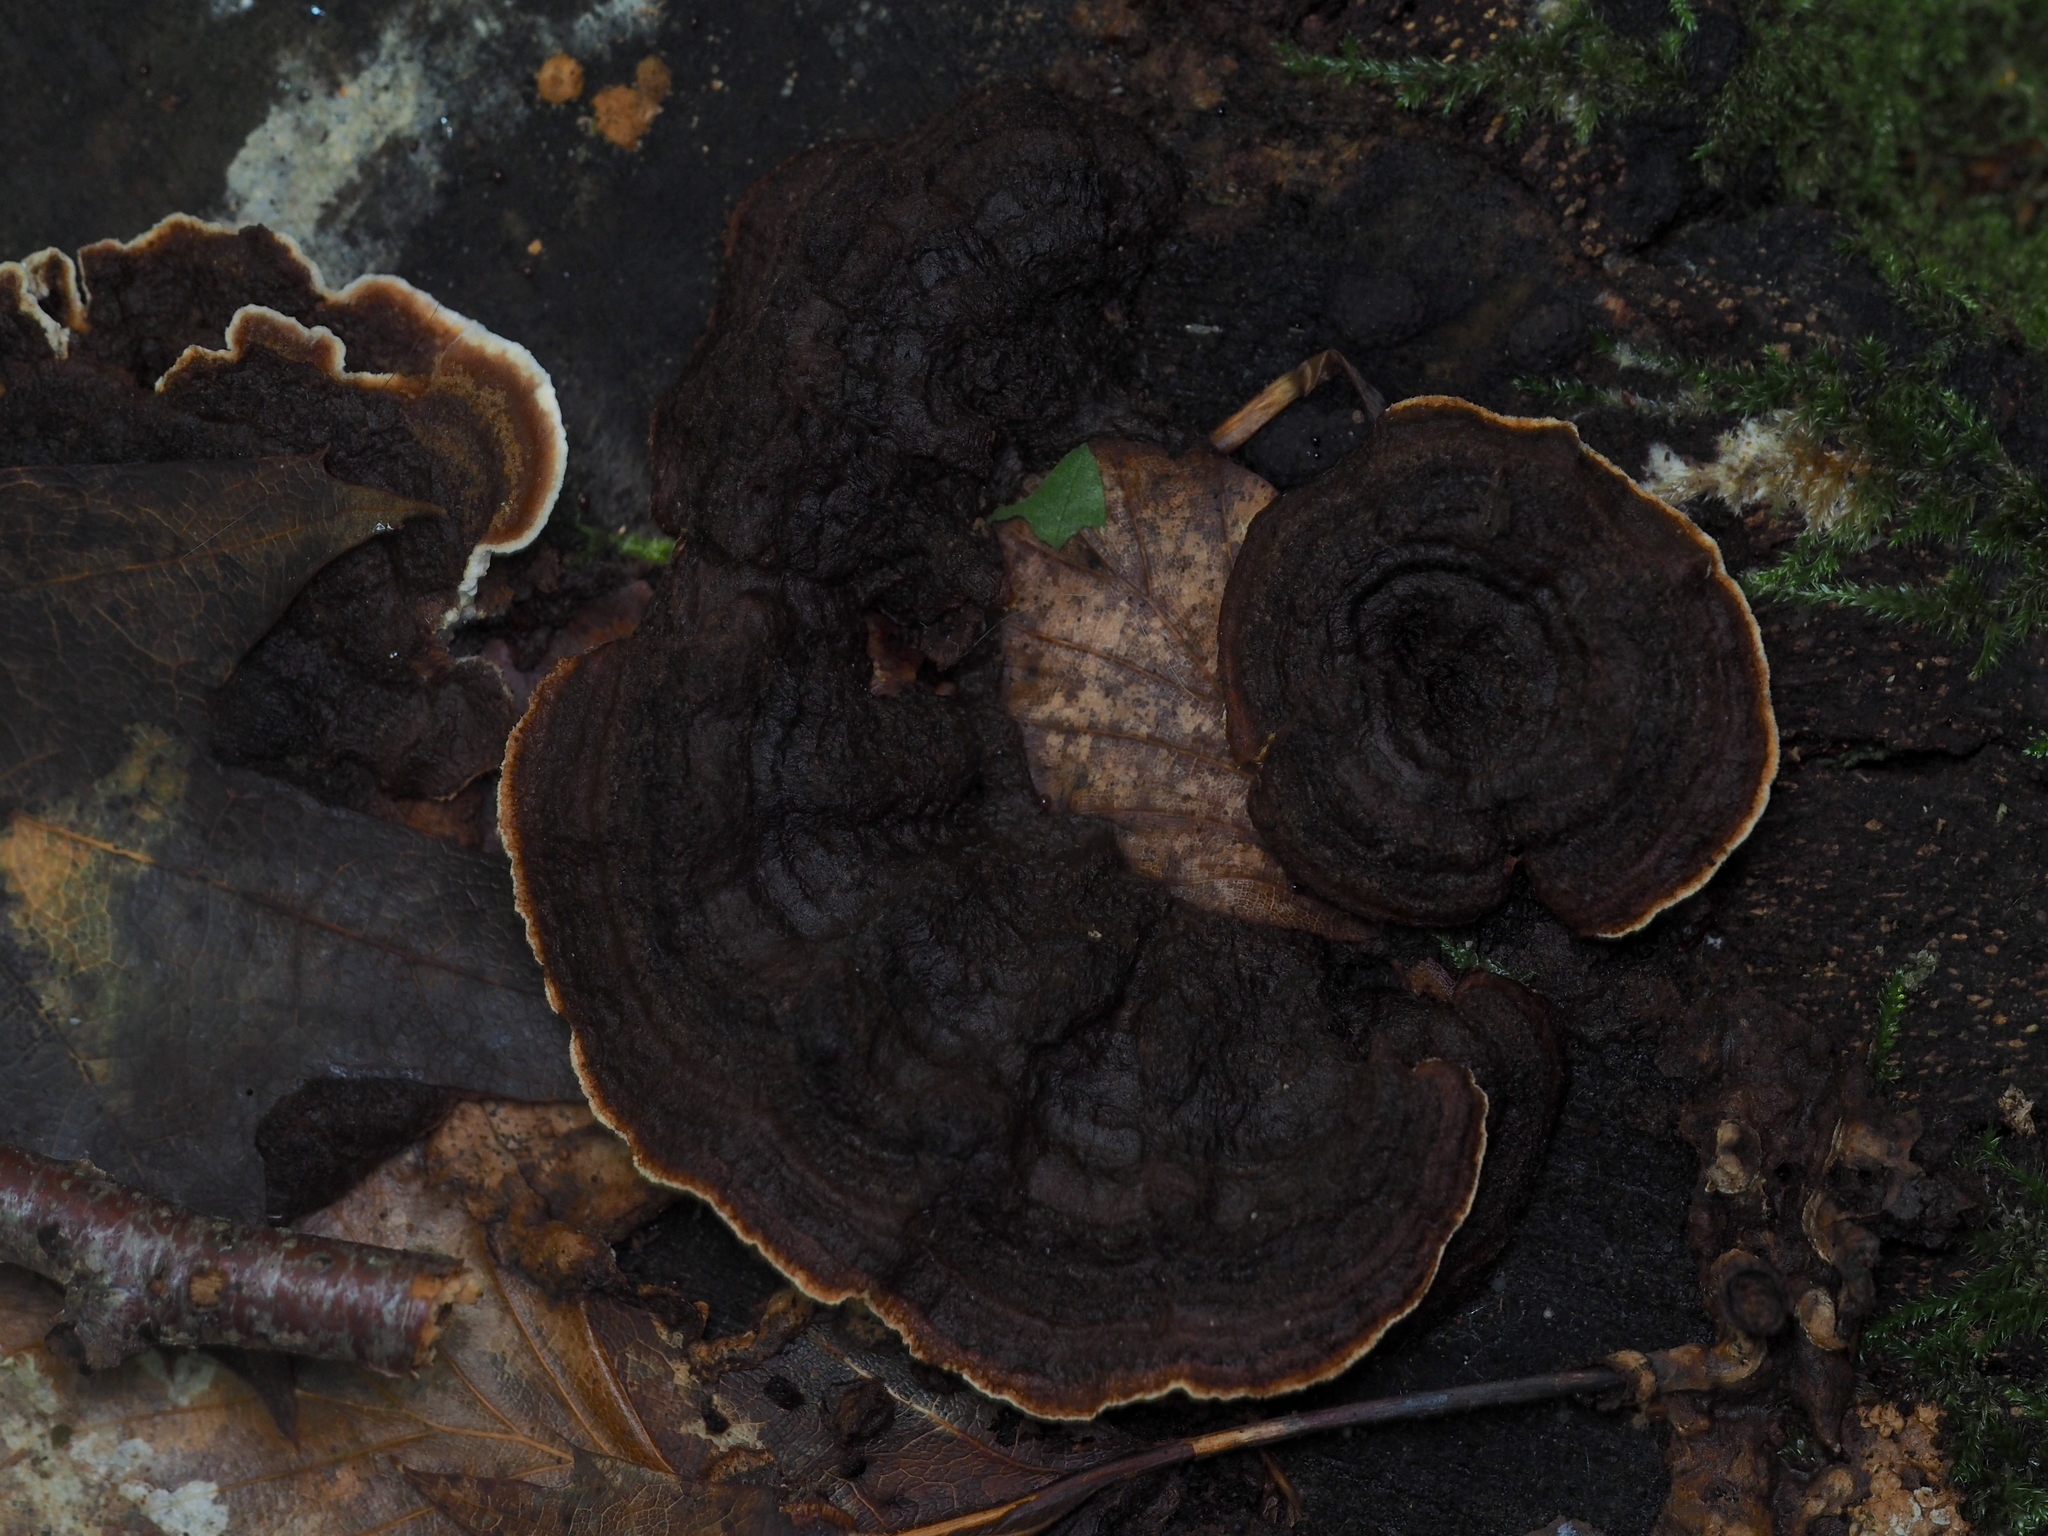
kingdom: Fungi
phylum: Basidiomycota
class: Agaricomycetes
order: Gloeophyllales
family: Gloeophyllaceae
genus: Gloeophyllum
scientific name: Gloeophyllum sepiarium
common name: Conifer mazegill
